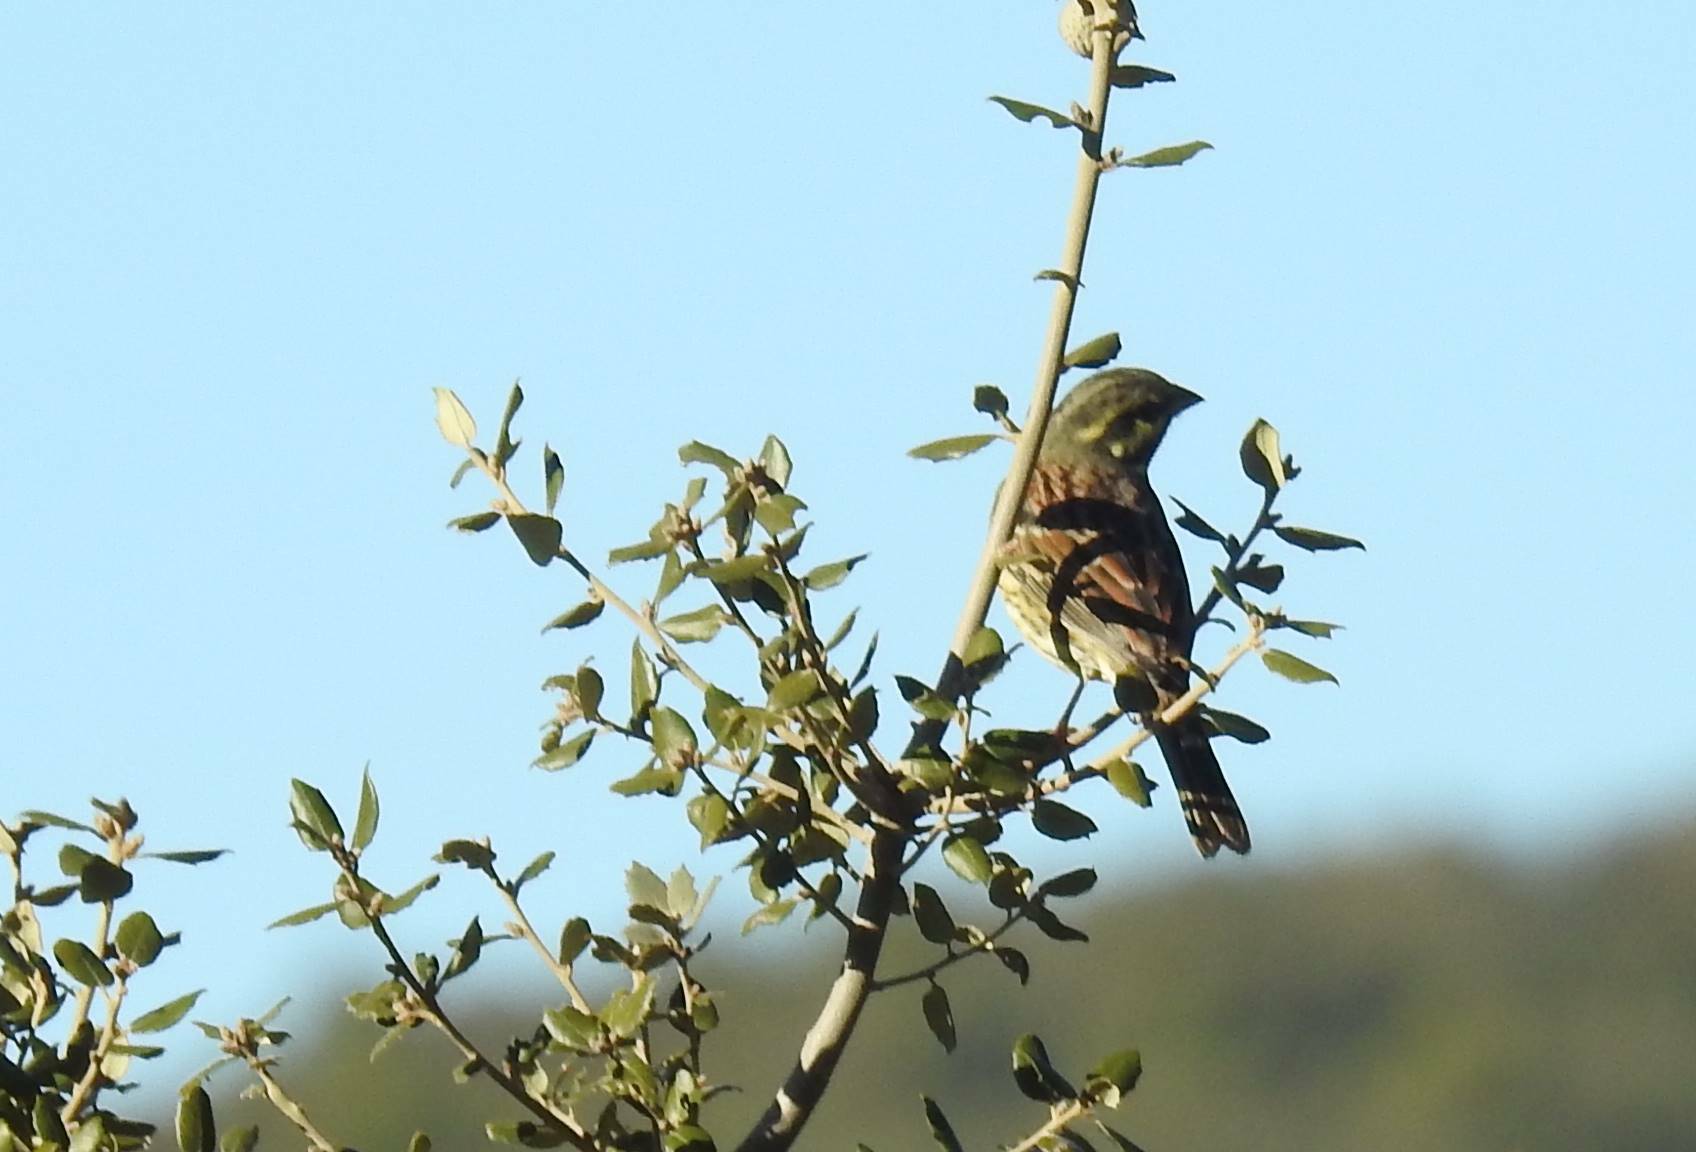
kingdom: Animalia
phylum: Chordata
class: Aves
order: Passeriformes
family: Emberizidae
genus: Emberiza
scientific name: Emberiza cirlus
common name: Cirl bunting
